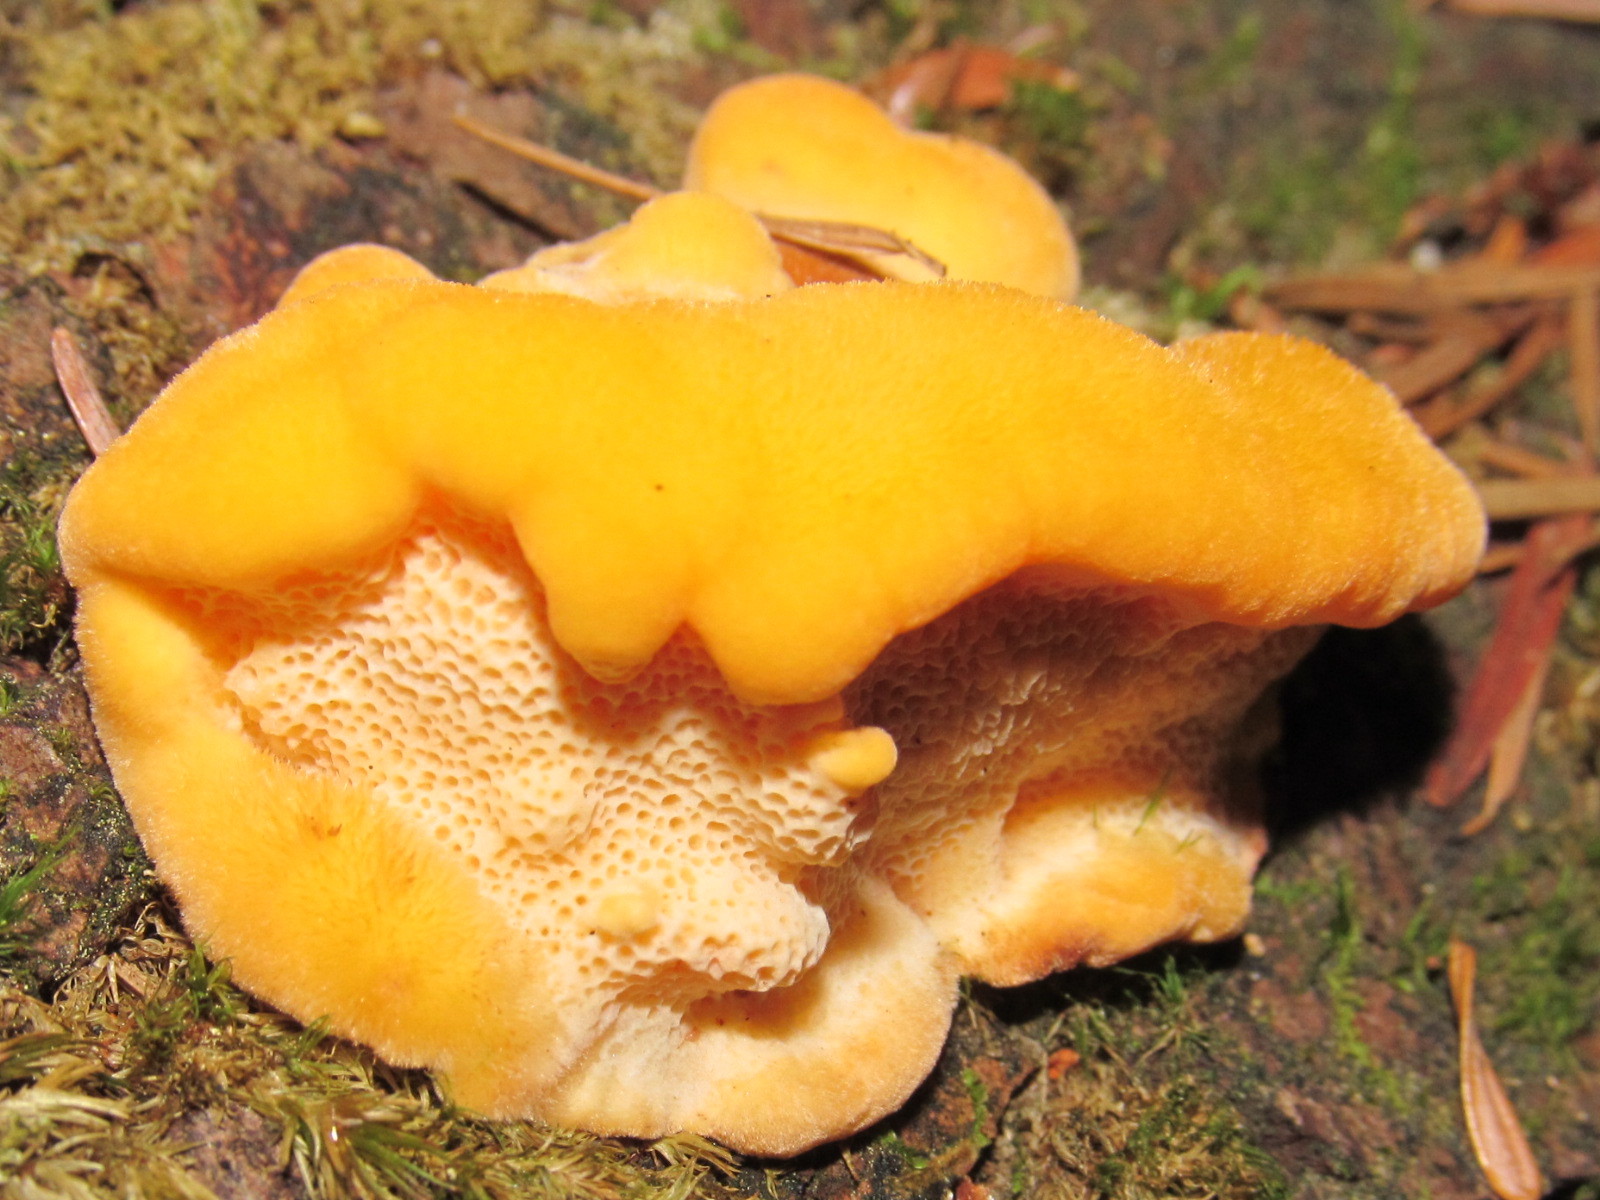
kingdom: Fungi
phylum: Basidiomycota
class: Agaricomycetes
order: Polyporales
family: Pycnoporellaceae
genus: Pycnoporellus
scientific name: Pycnoporellus fulgens
